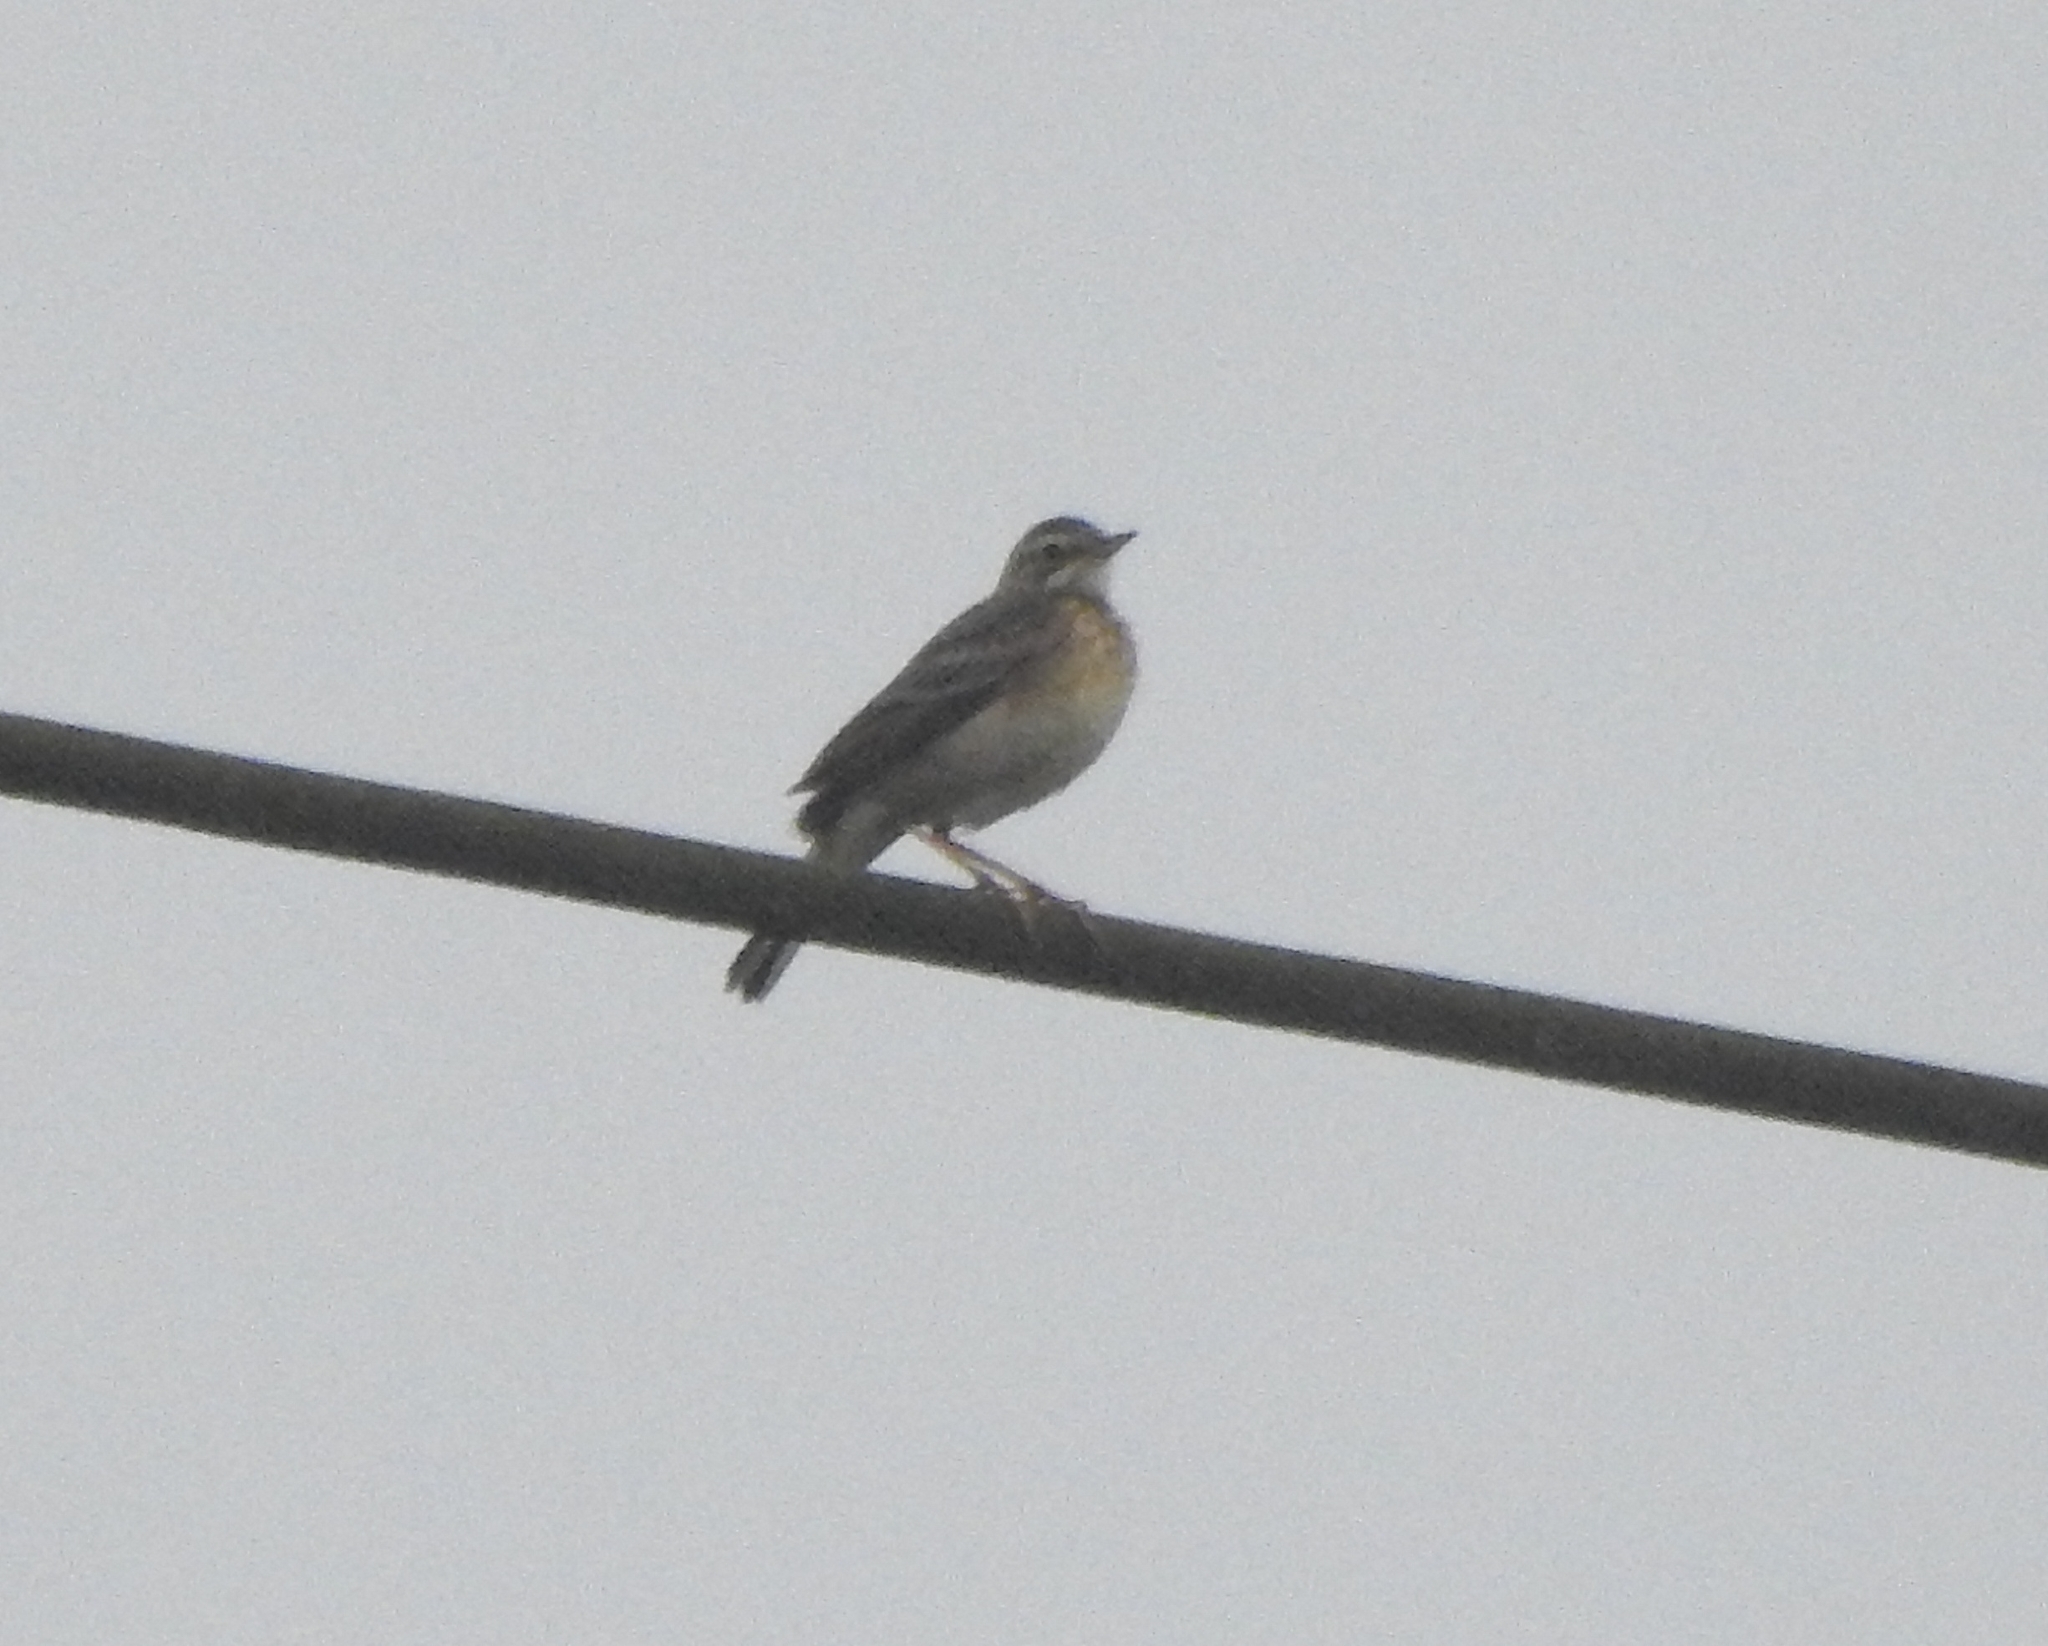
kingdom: Animalia
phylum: Chordata
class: Aves
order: Passeriformes
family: Motacillidae
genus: Anthus
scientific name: Anthus rufulus
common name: Paddyfield pipit
